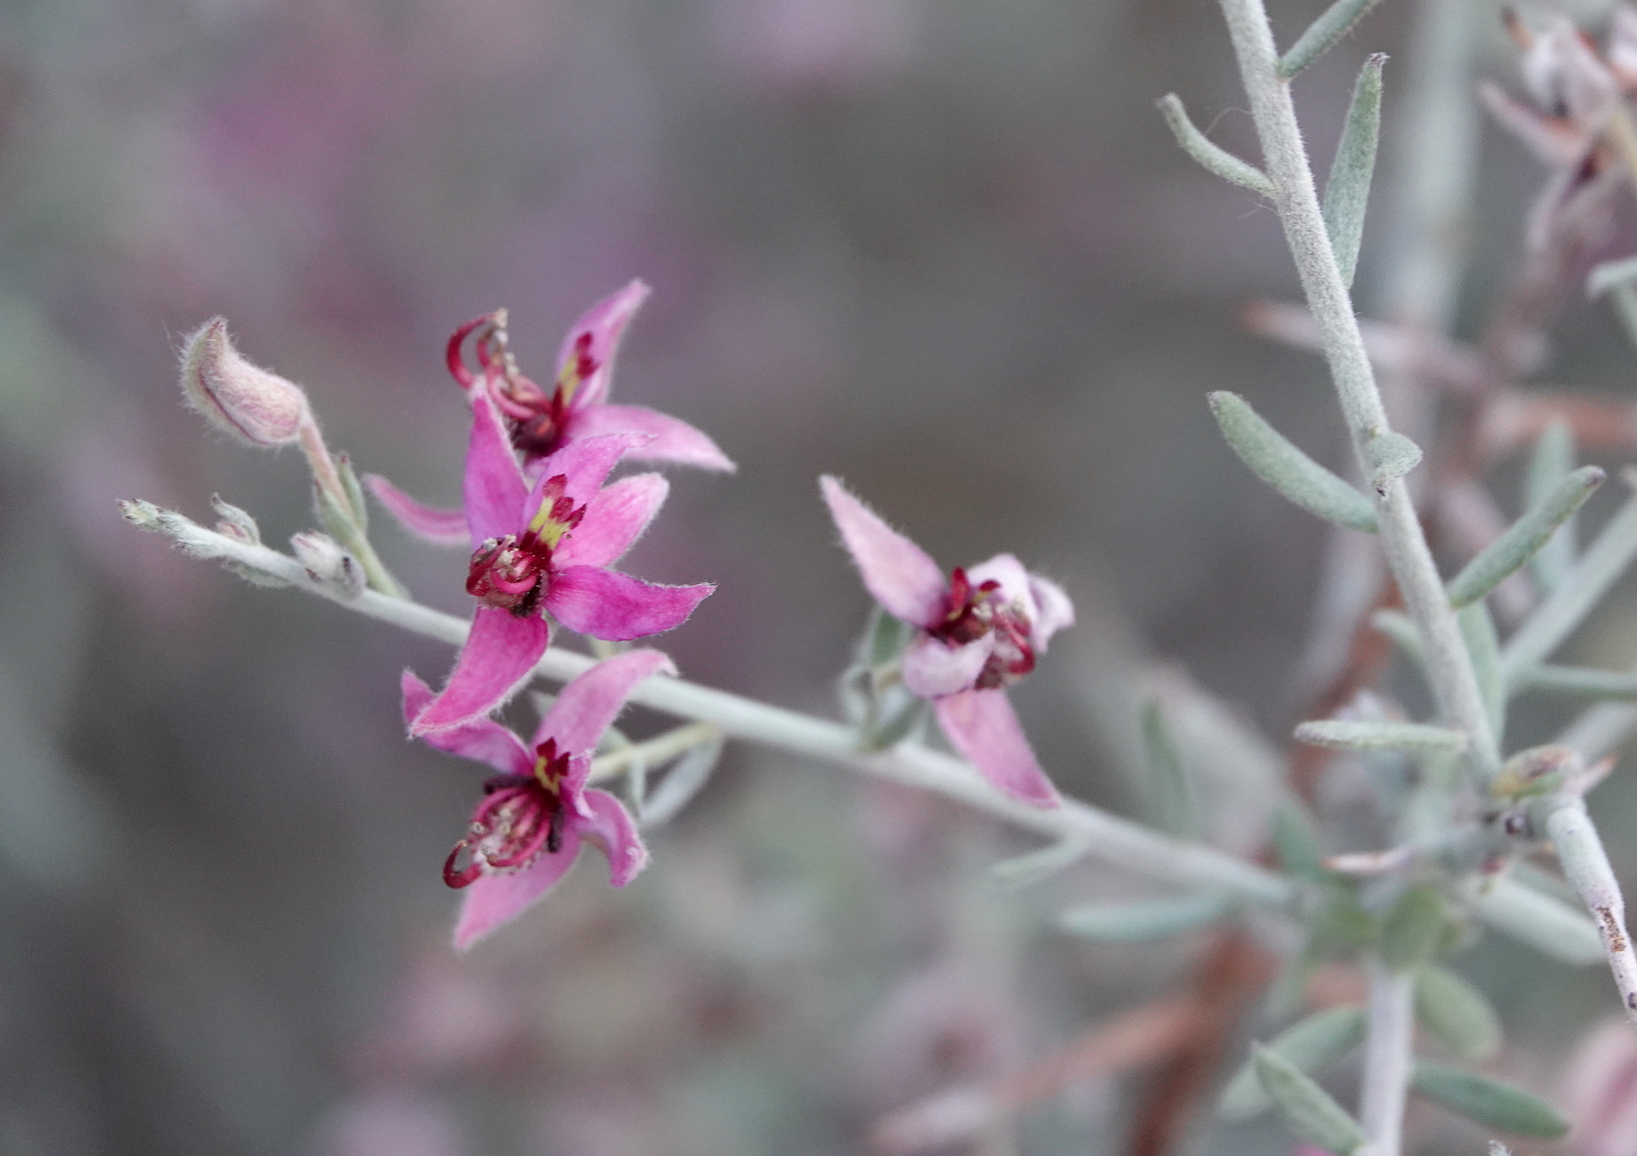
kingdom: Plantae
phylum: Tracheophyta
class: Magnoliopsida
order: Zygophyllales
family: Krameriaceae
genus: Krameria
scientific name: Krameria bicolor
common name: White ratany
